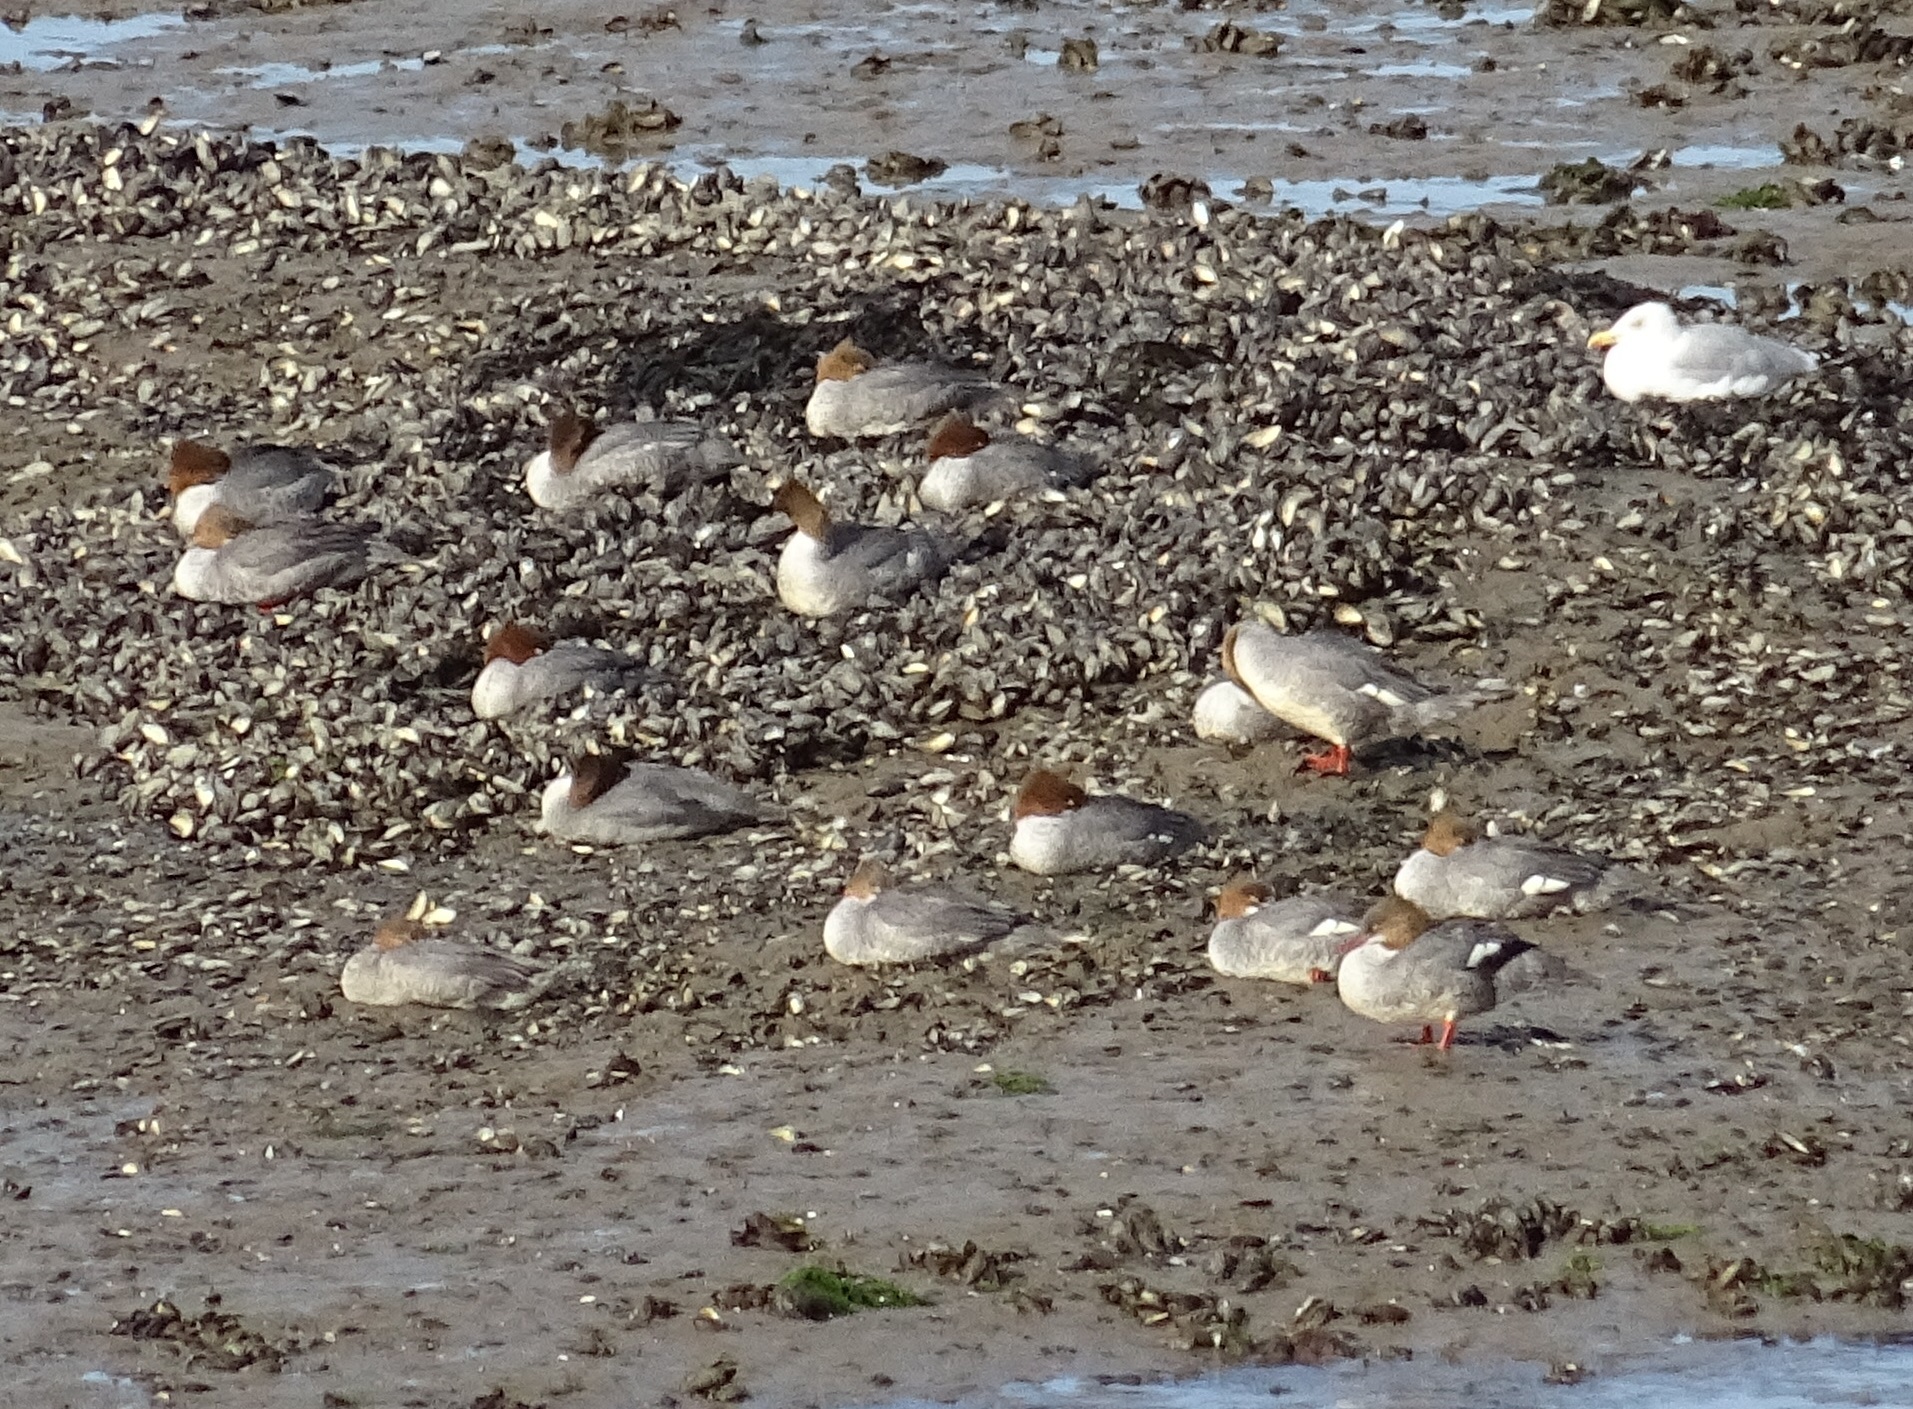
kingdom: Animalia
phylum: Chordata
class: Aves
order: Anseriformes
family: Anatidae
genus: Mergus
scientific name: Mergus merganser
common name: Common merganser
